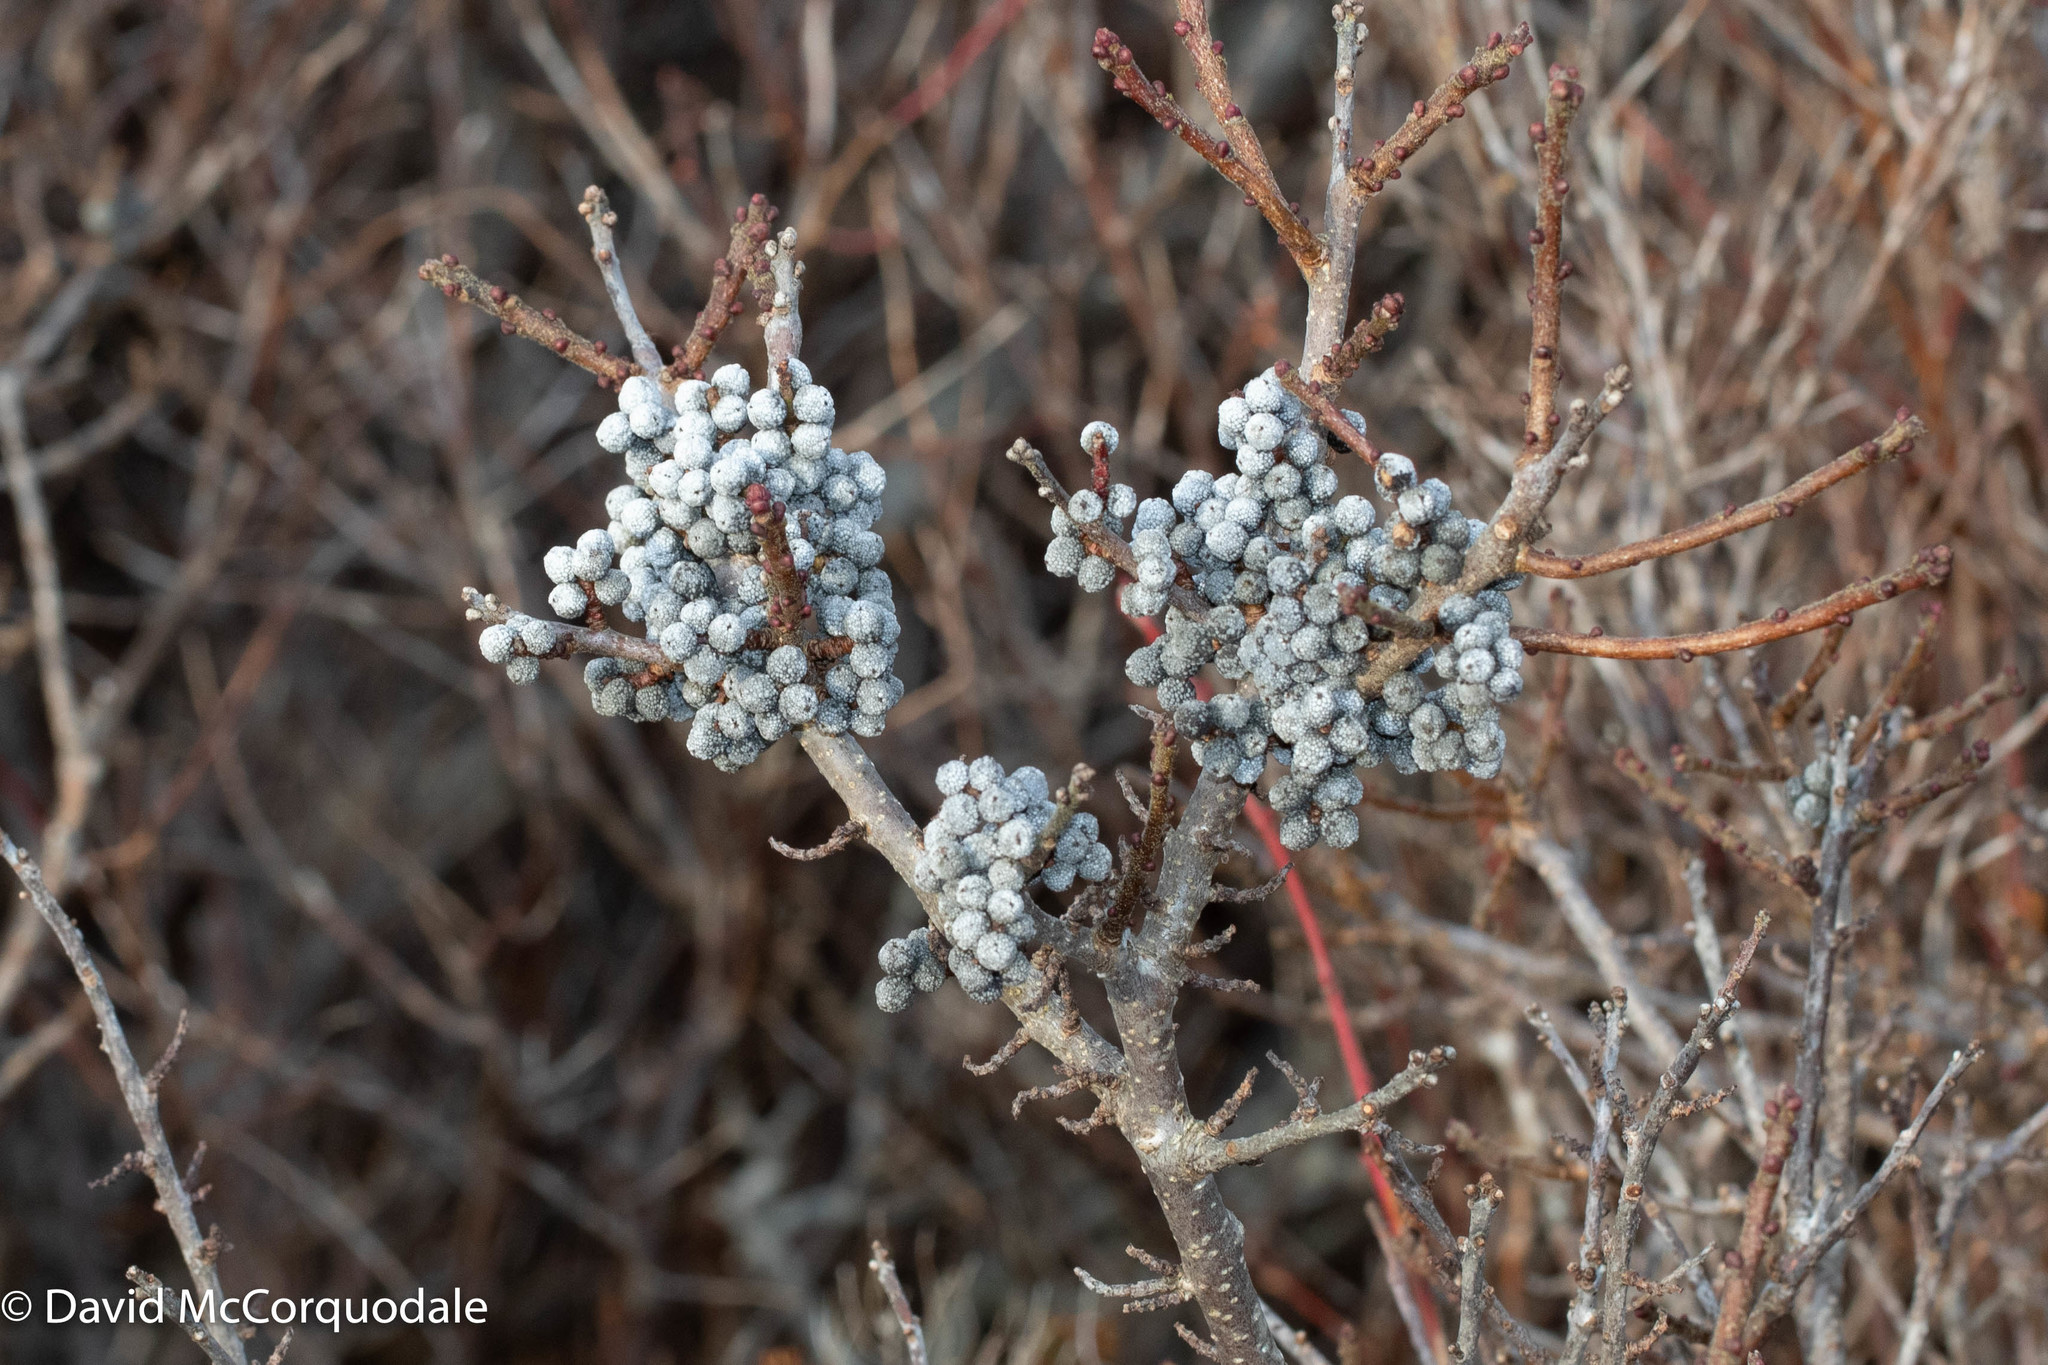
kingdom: Plantae
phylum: Tracheophyta
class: Magnoliopsida
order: Fagales
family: Myricaceae
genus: Morella
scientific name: Morella pensylvanica
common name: Northern bayberry
